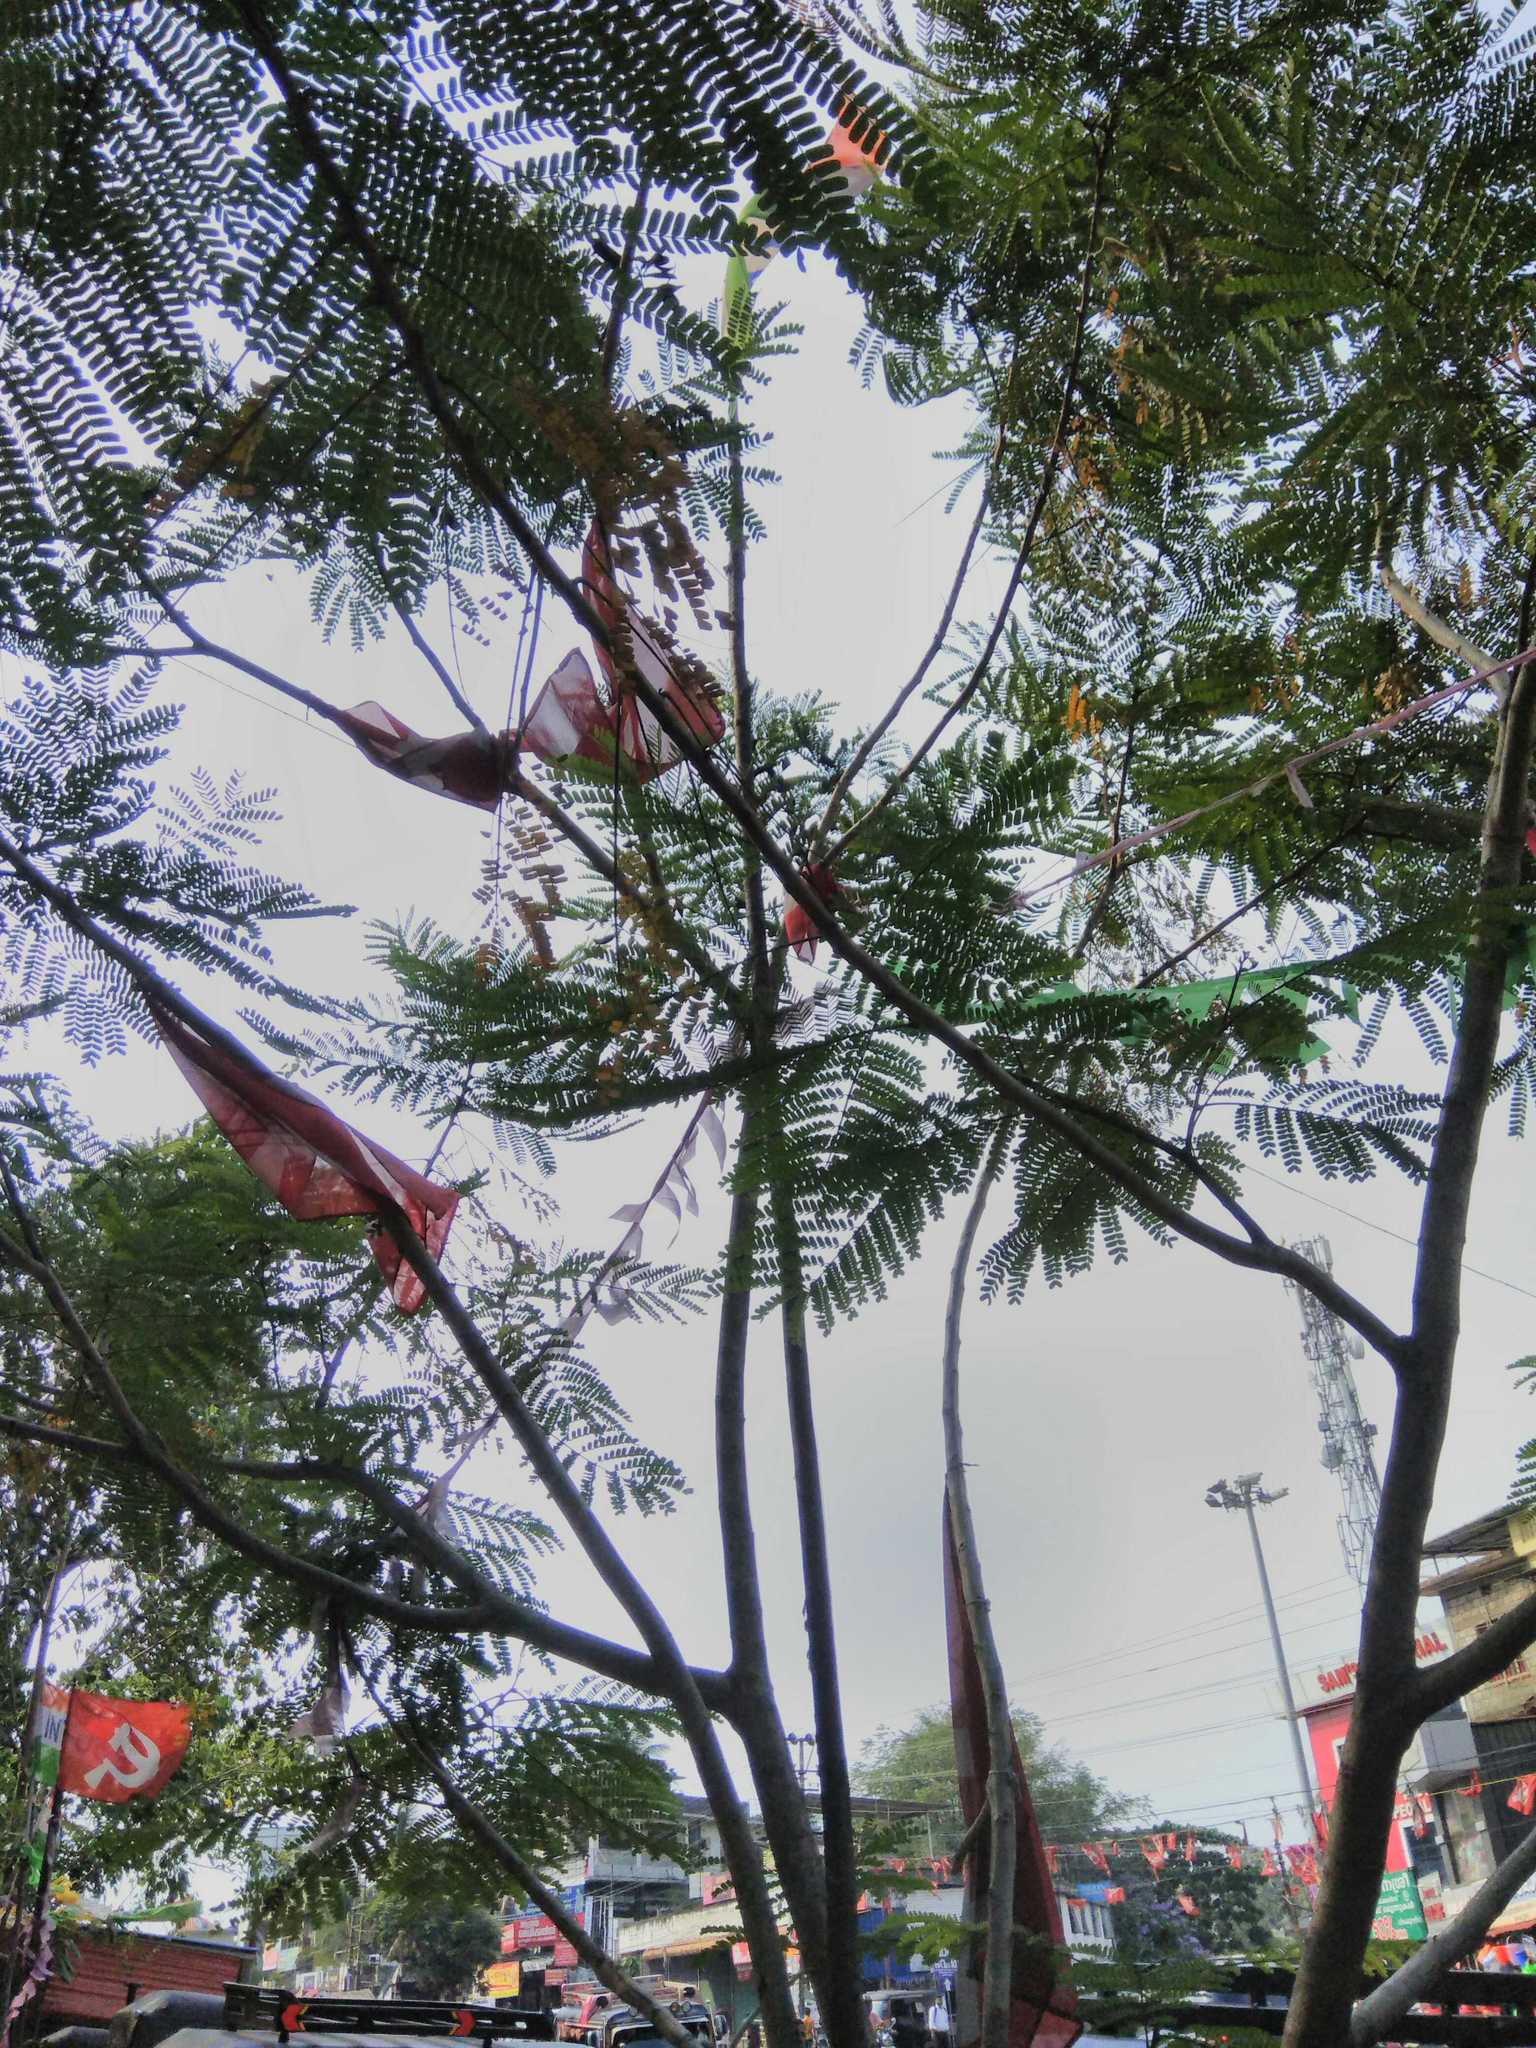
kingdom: Plantae
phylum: Tracheophyta
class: Magnoliopsida
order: Fabales
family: Fabaceae
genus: Delonix
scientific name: Delonix regia
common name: Royal poinciana
